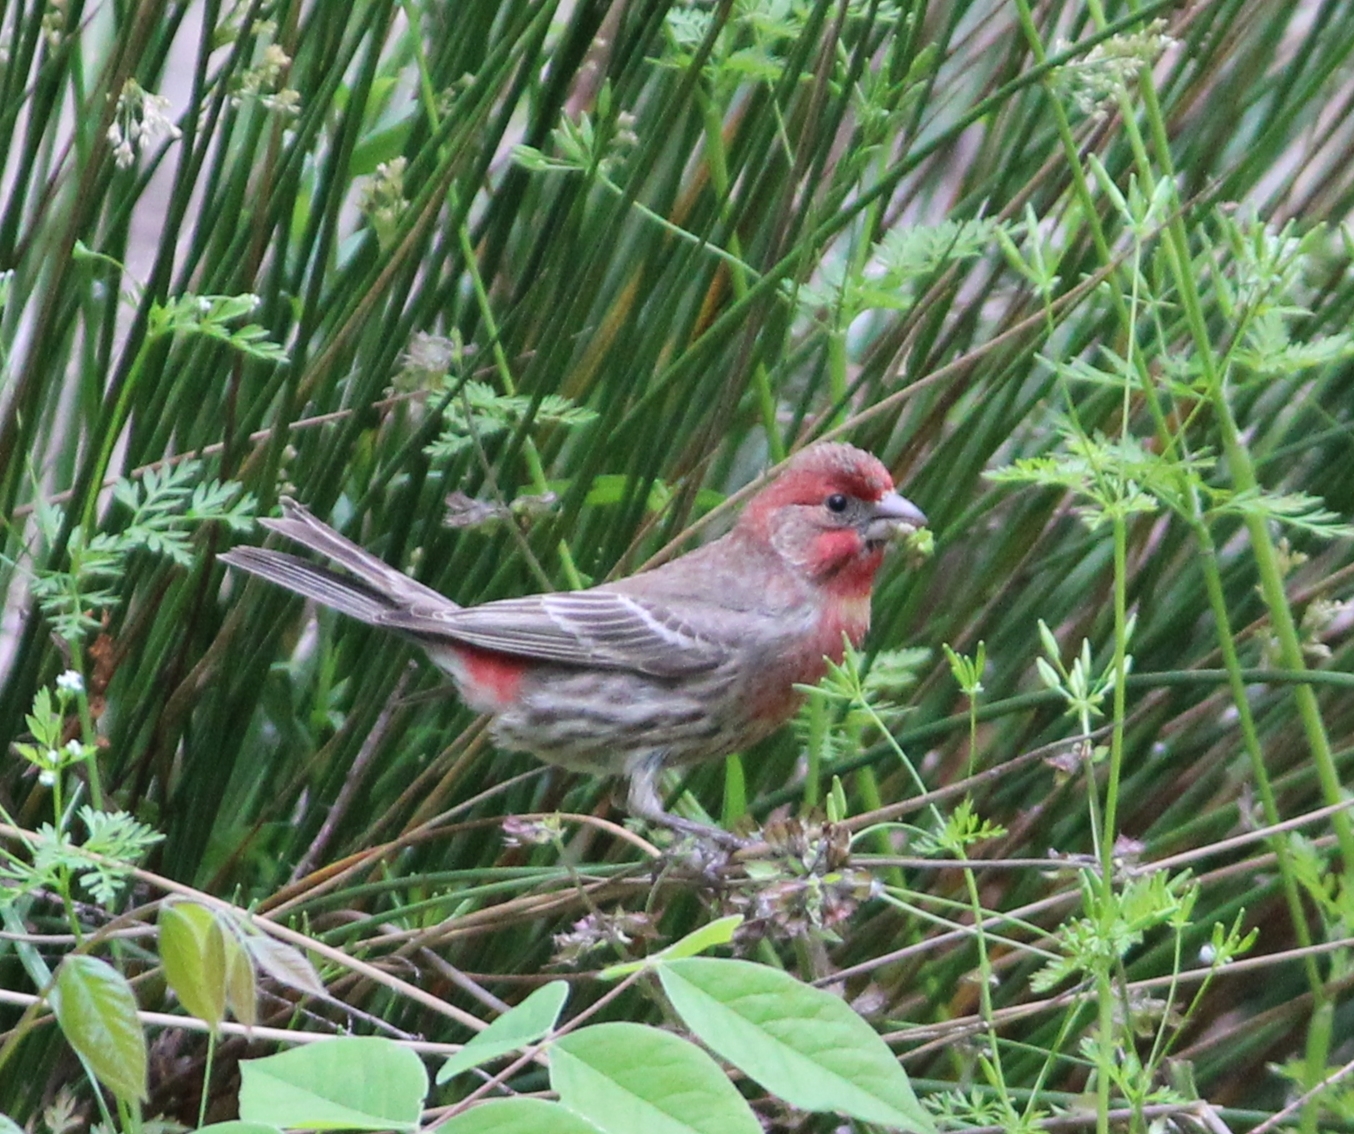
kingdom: Animalia
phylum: Chordata
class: Aves
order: Passeriformes
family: Fringillidae
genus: Haemorhous
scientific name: Haemorhous mexicanus
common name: House finch
